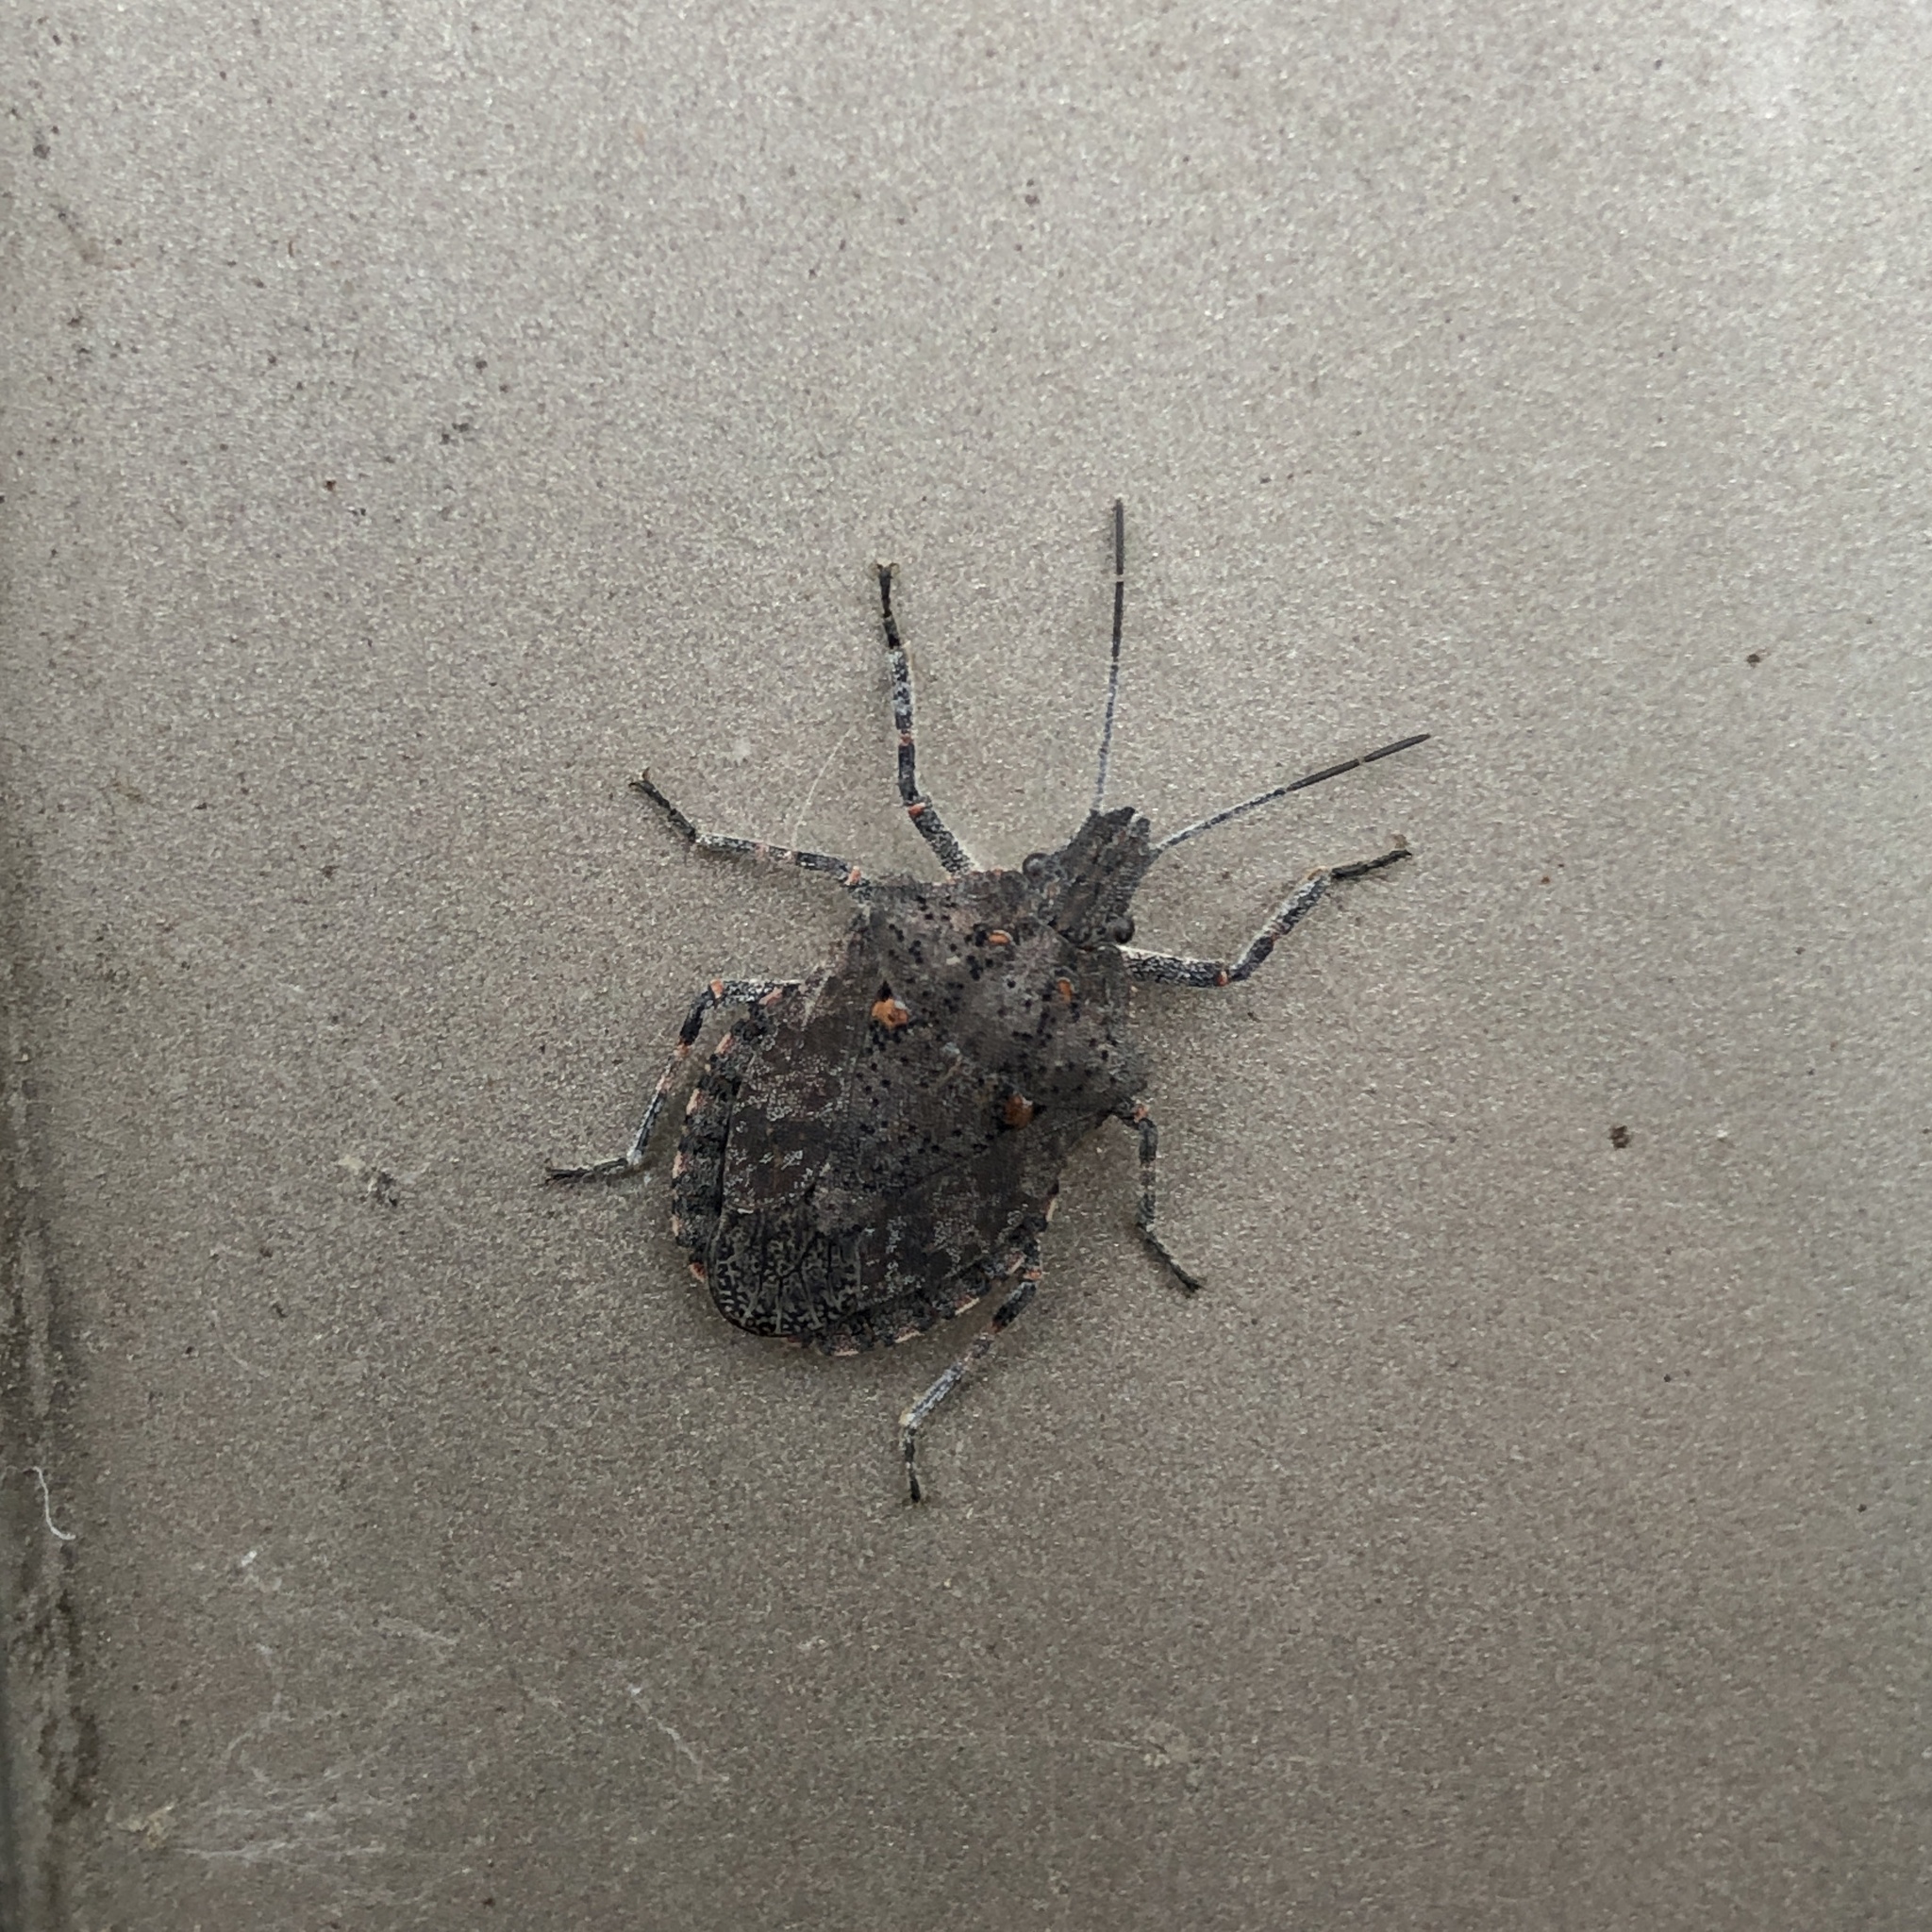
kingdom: Animalia
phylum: Arthropoda
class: Insecta
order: Hemiptera
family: Pentatomidae
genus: Brochymena
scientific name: Brochymena quadripustulata
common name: Four-humped stink bug
